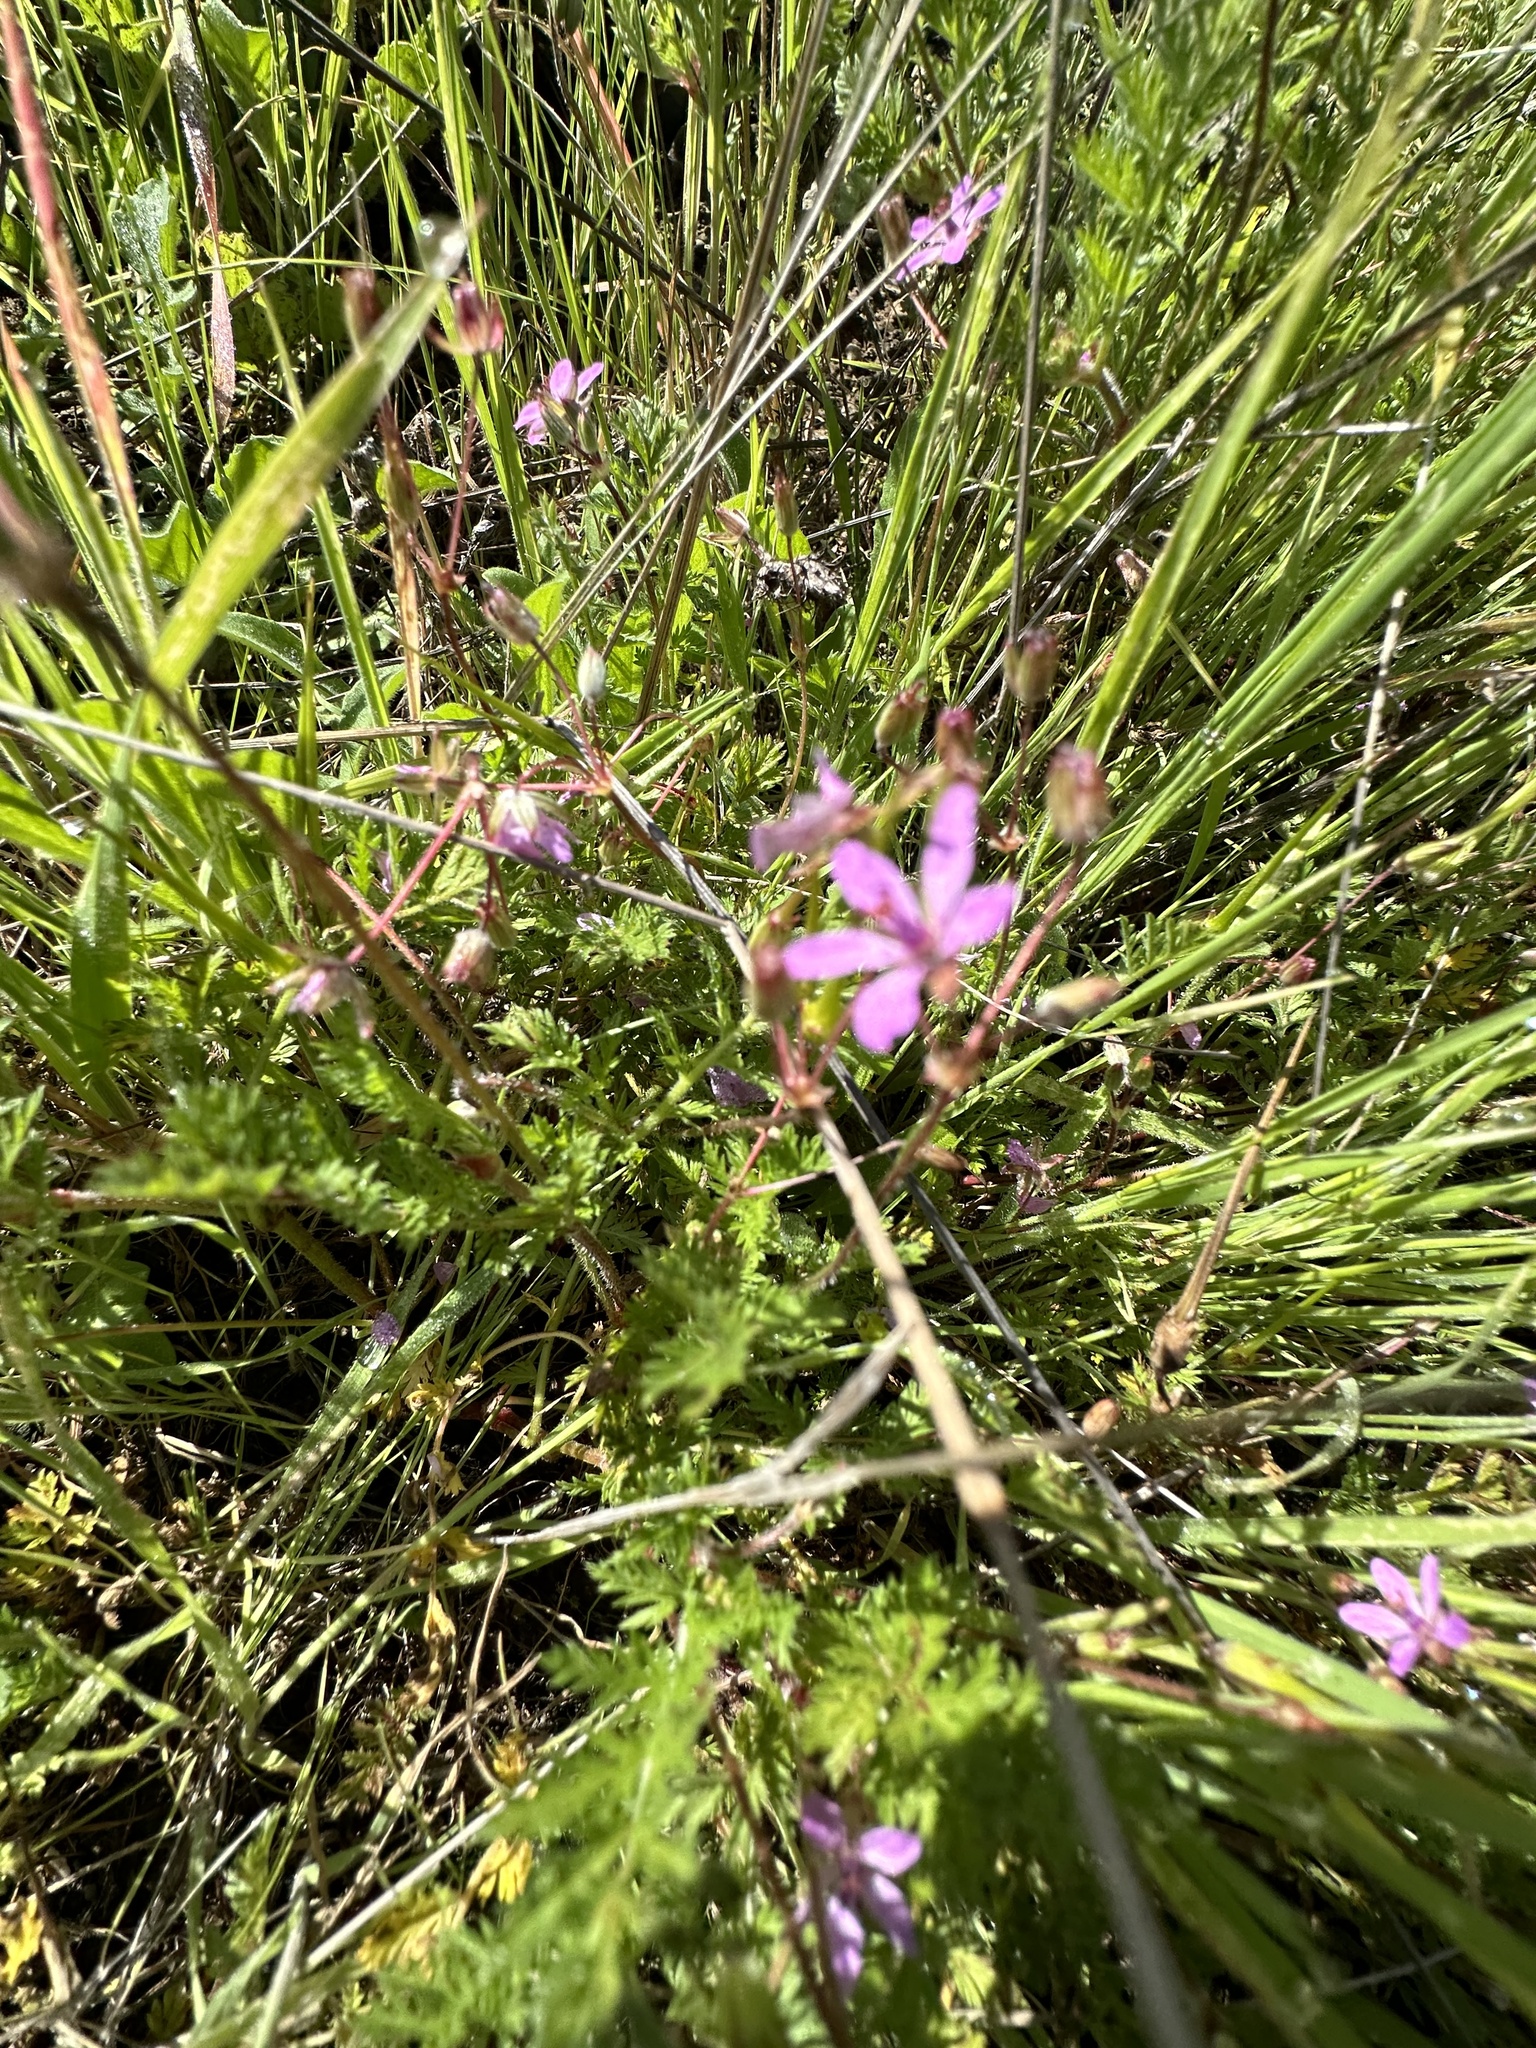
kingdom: Plantae
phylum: Tracheophyta
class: Magnoliopsida
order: Geraniales
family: Geraniaceae
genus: Erodium
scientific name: Erodium cicutarium
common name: Common stork's-bill
